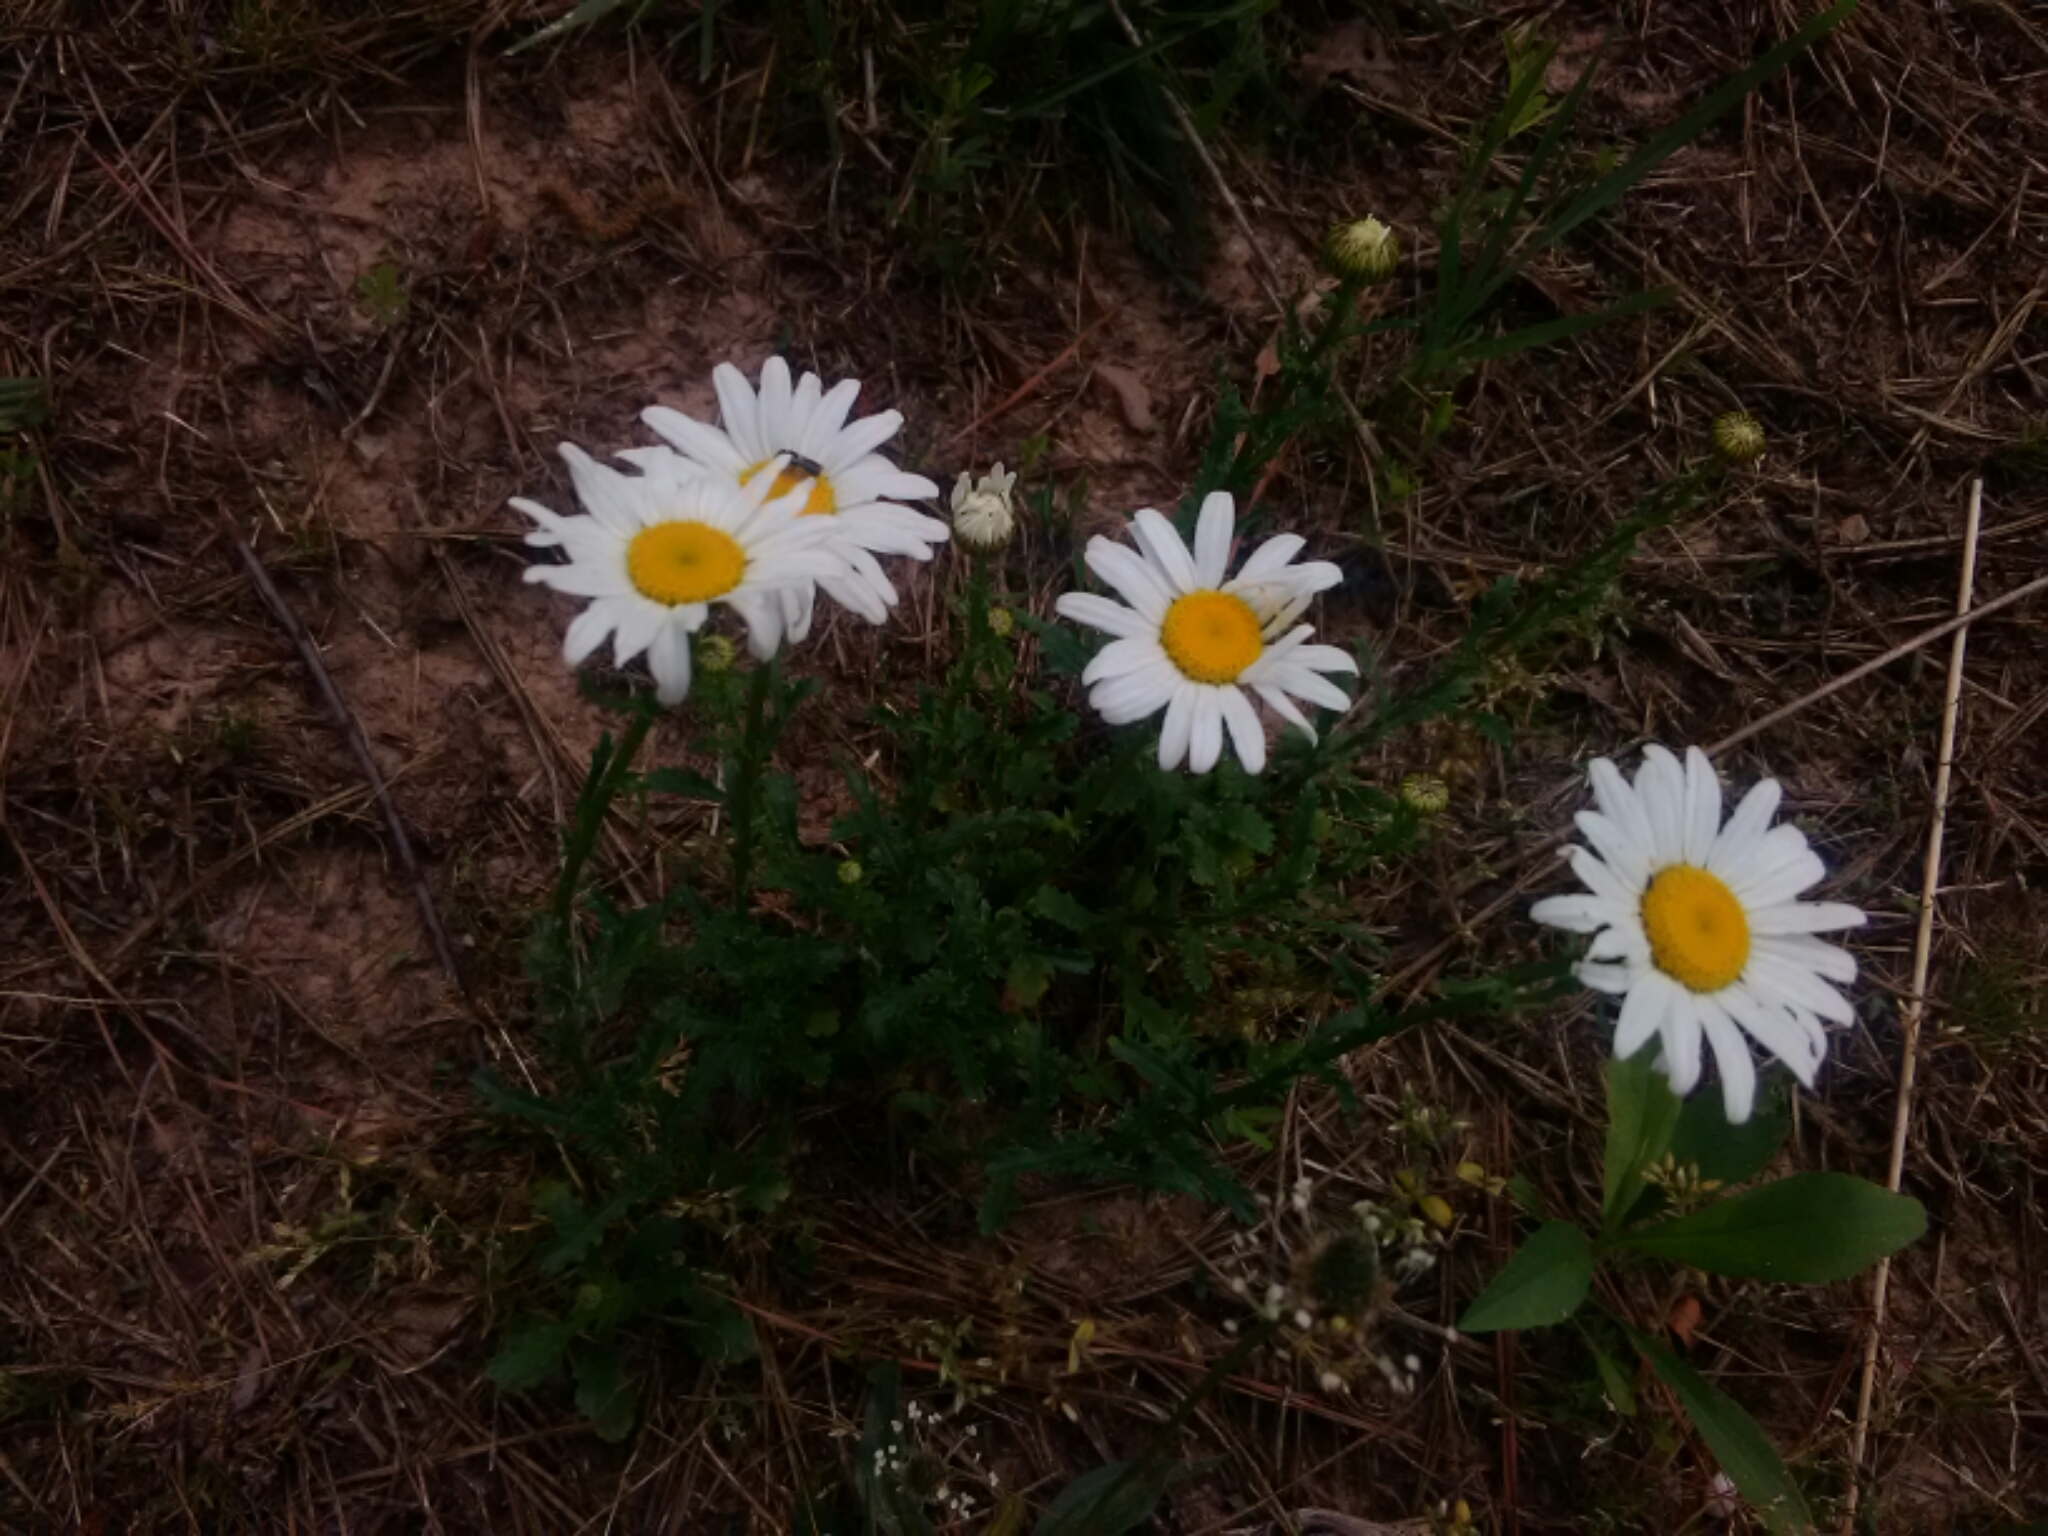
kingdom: Plantae
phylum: Tracheophyta
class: Magnoliopsida
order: Asterales
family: Asteraceae
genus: Leucanthemum
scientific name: Leucanthemum vulgare
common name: Oxeye daisy
